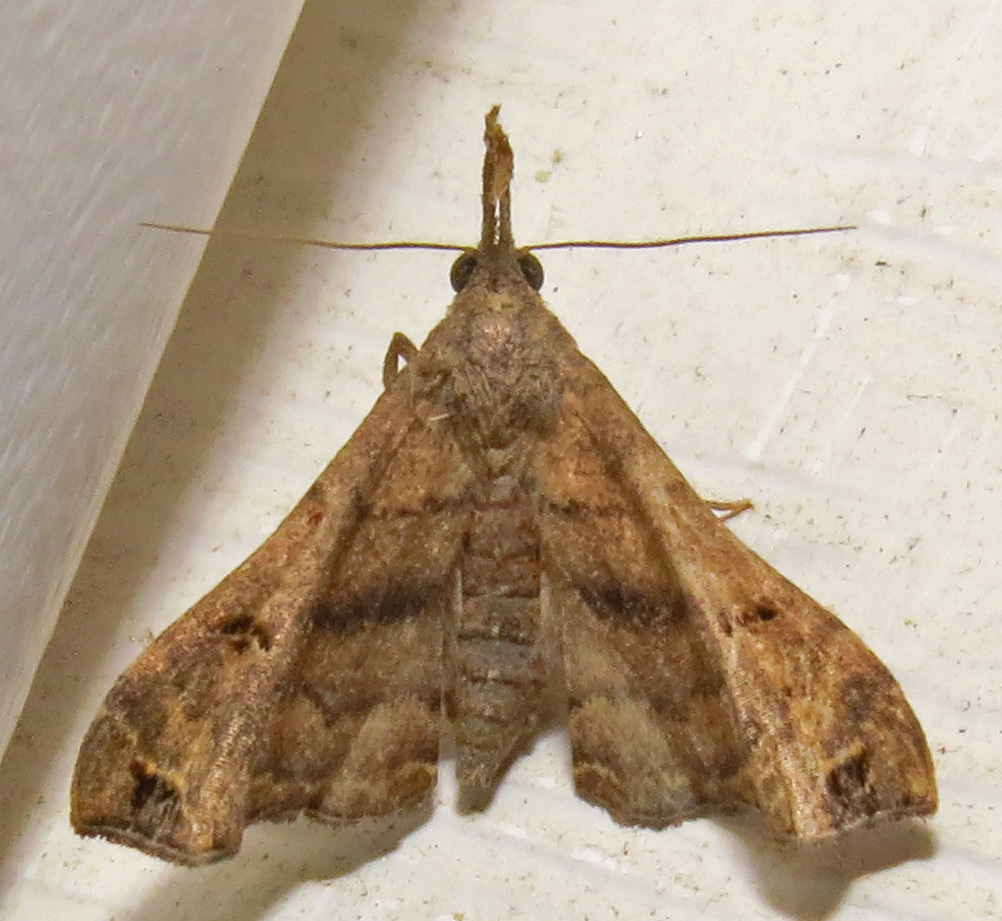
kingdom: Animalia
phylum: Arthropoda
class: Insecta
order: Lepidoptera
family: Erebidae
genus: Palthis
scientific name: Palthis asopialis
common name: Faint-spotted palthis moth
